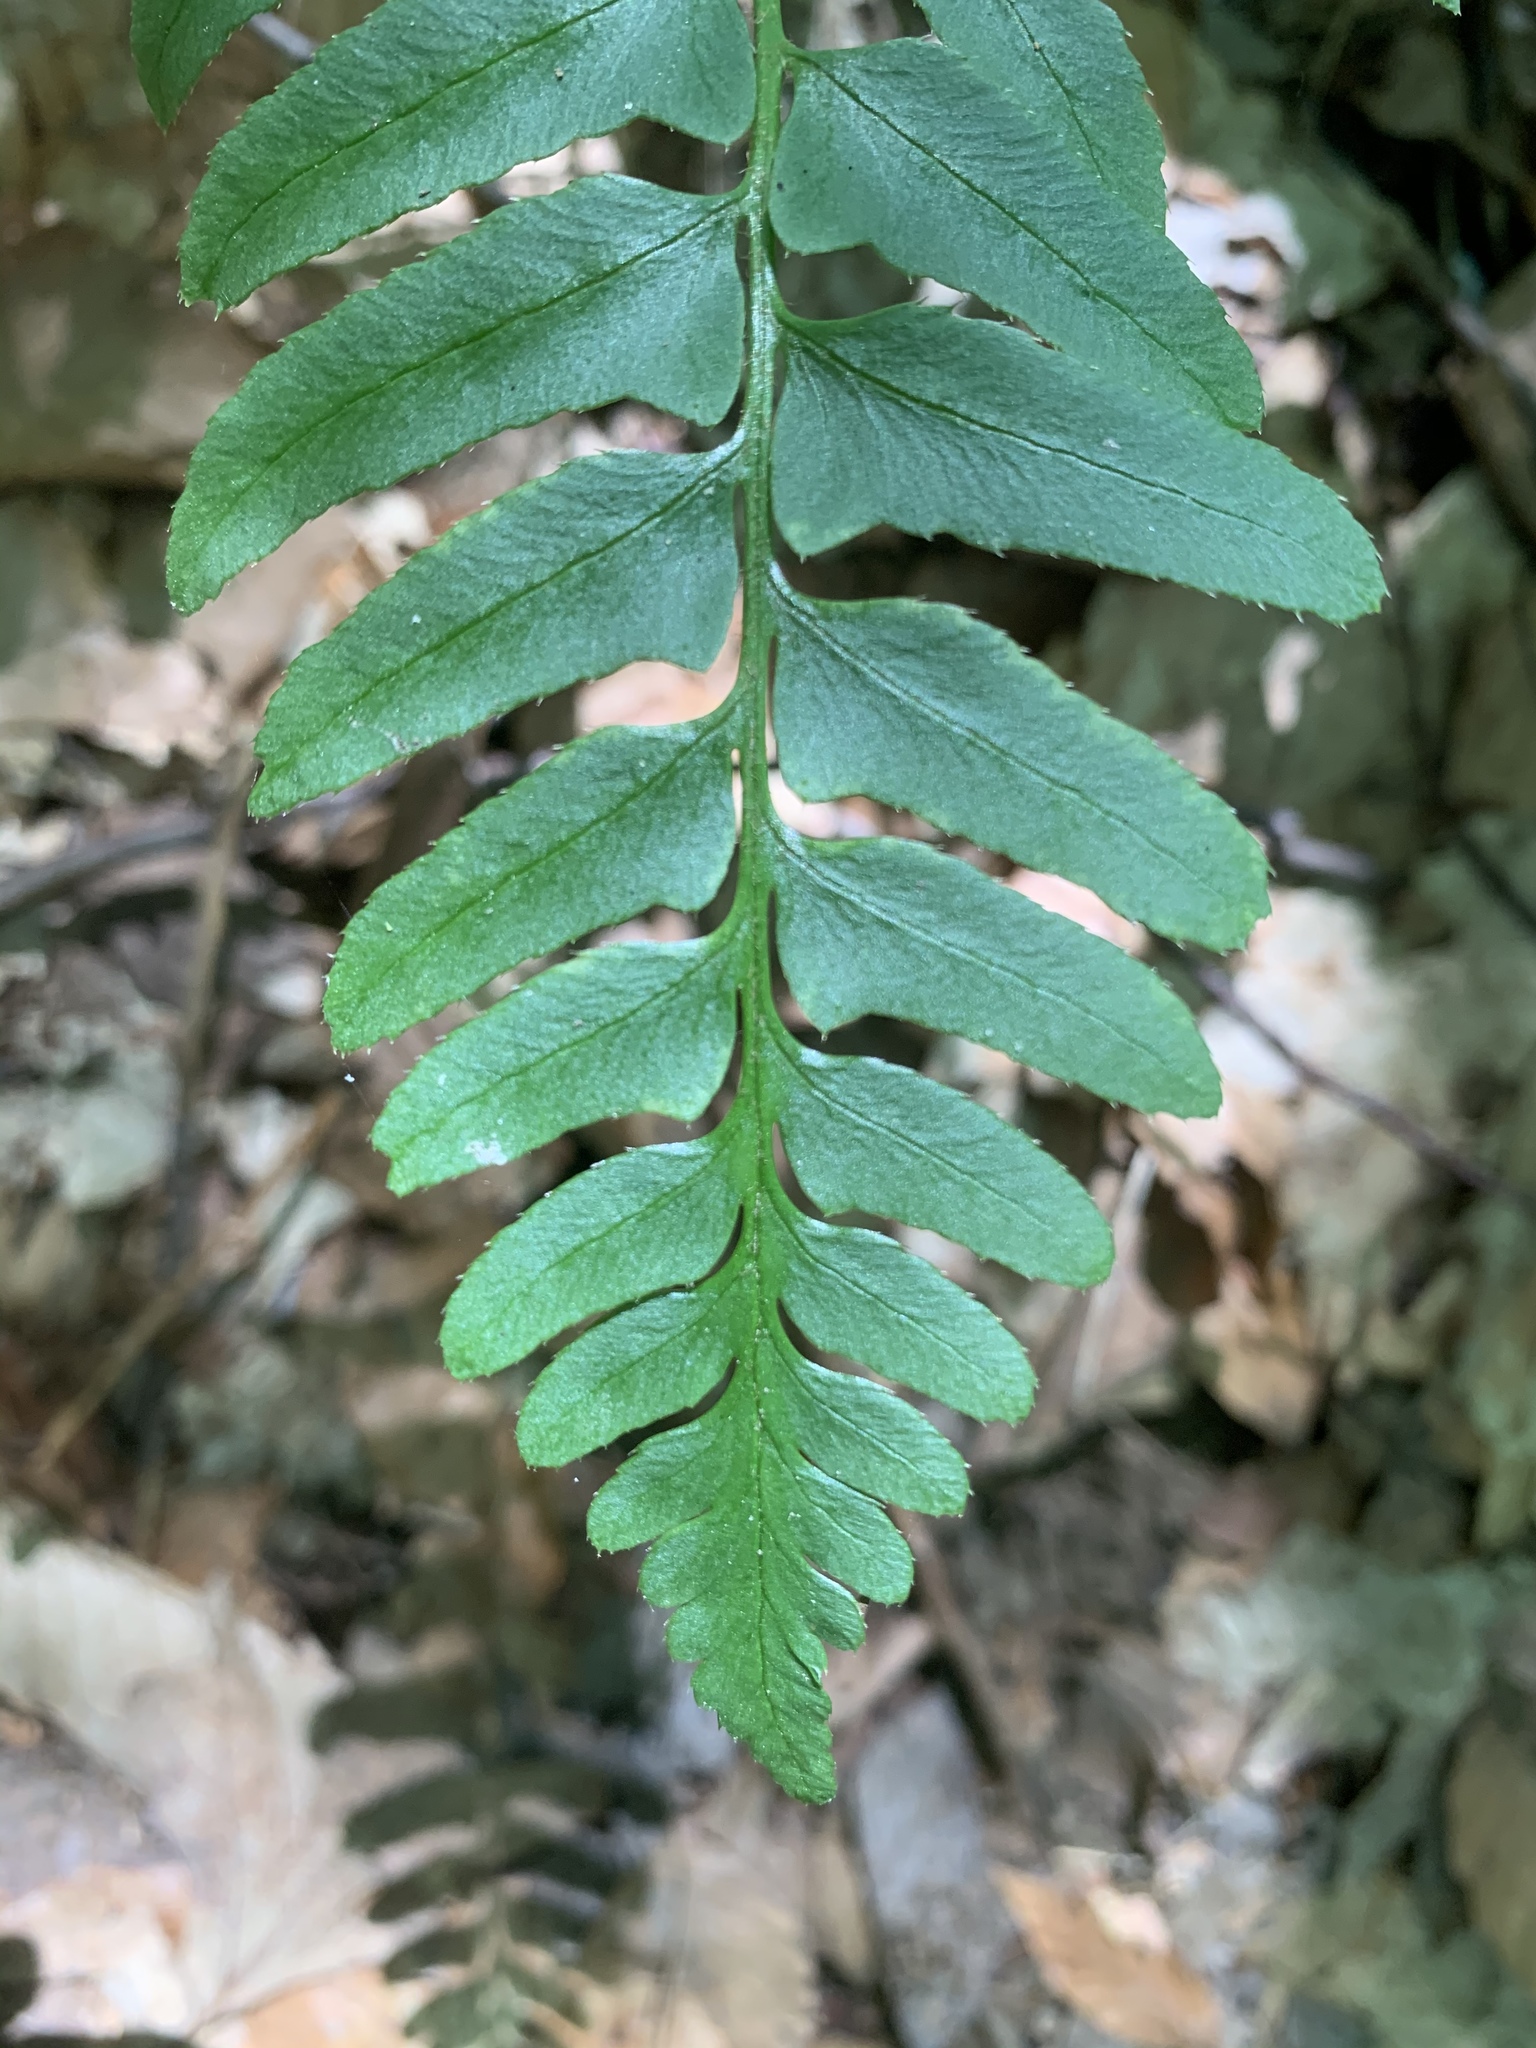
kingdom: Plantae
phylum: Tracheophyta
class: Polypodiopsida
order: Polypodiales
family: Dryopteridaceae
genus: Polystichum
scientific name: Polystichum acrostichoides
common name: Christmas fern
